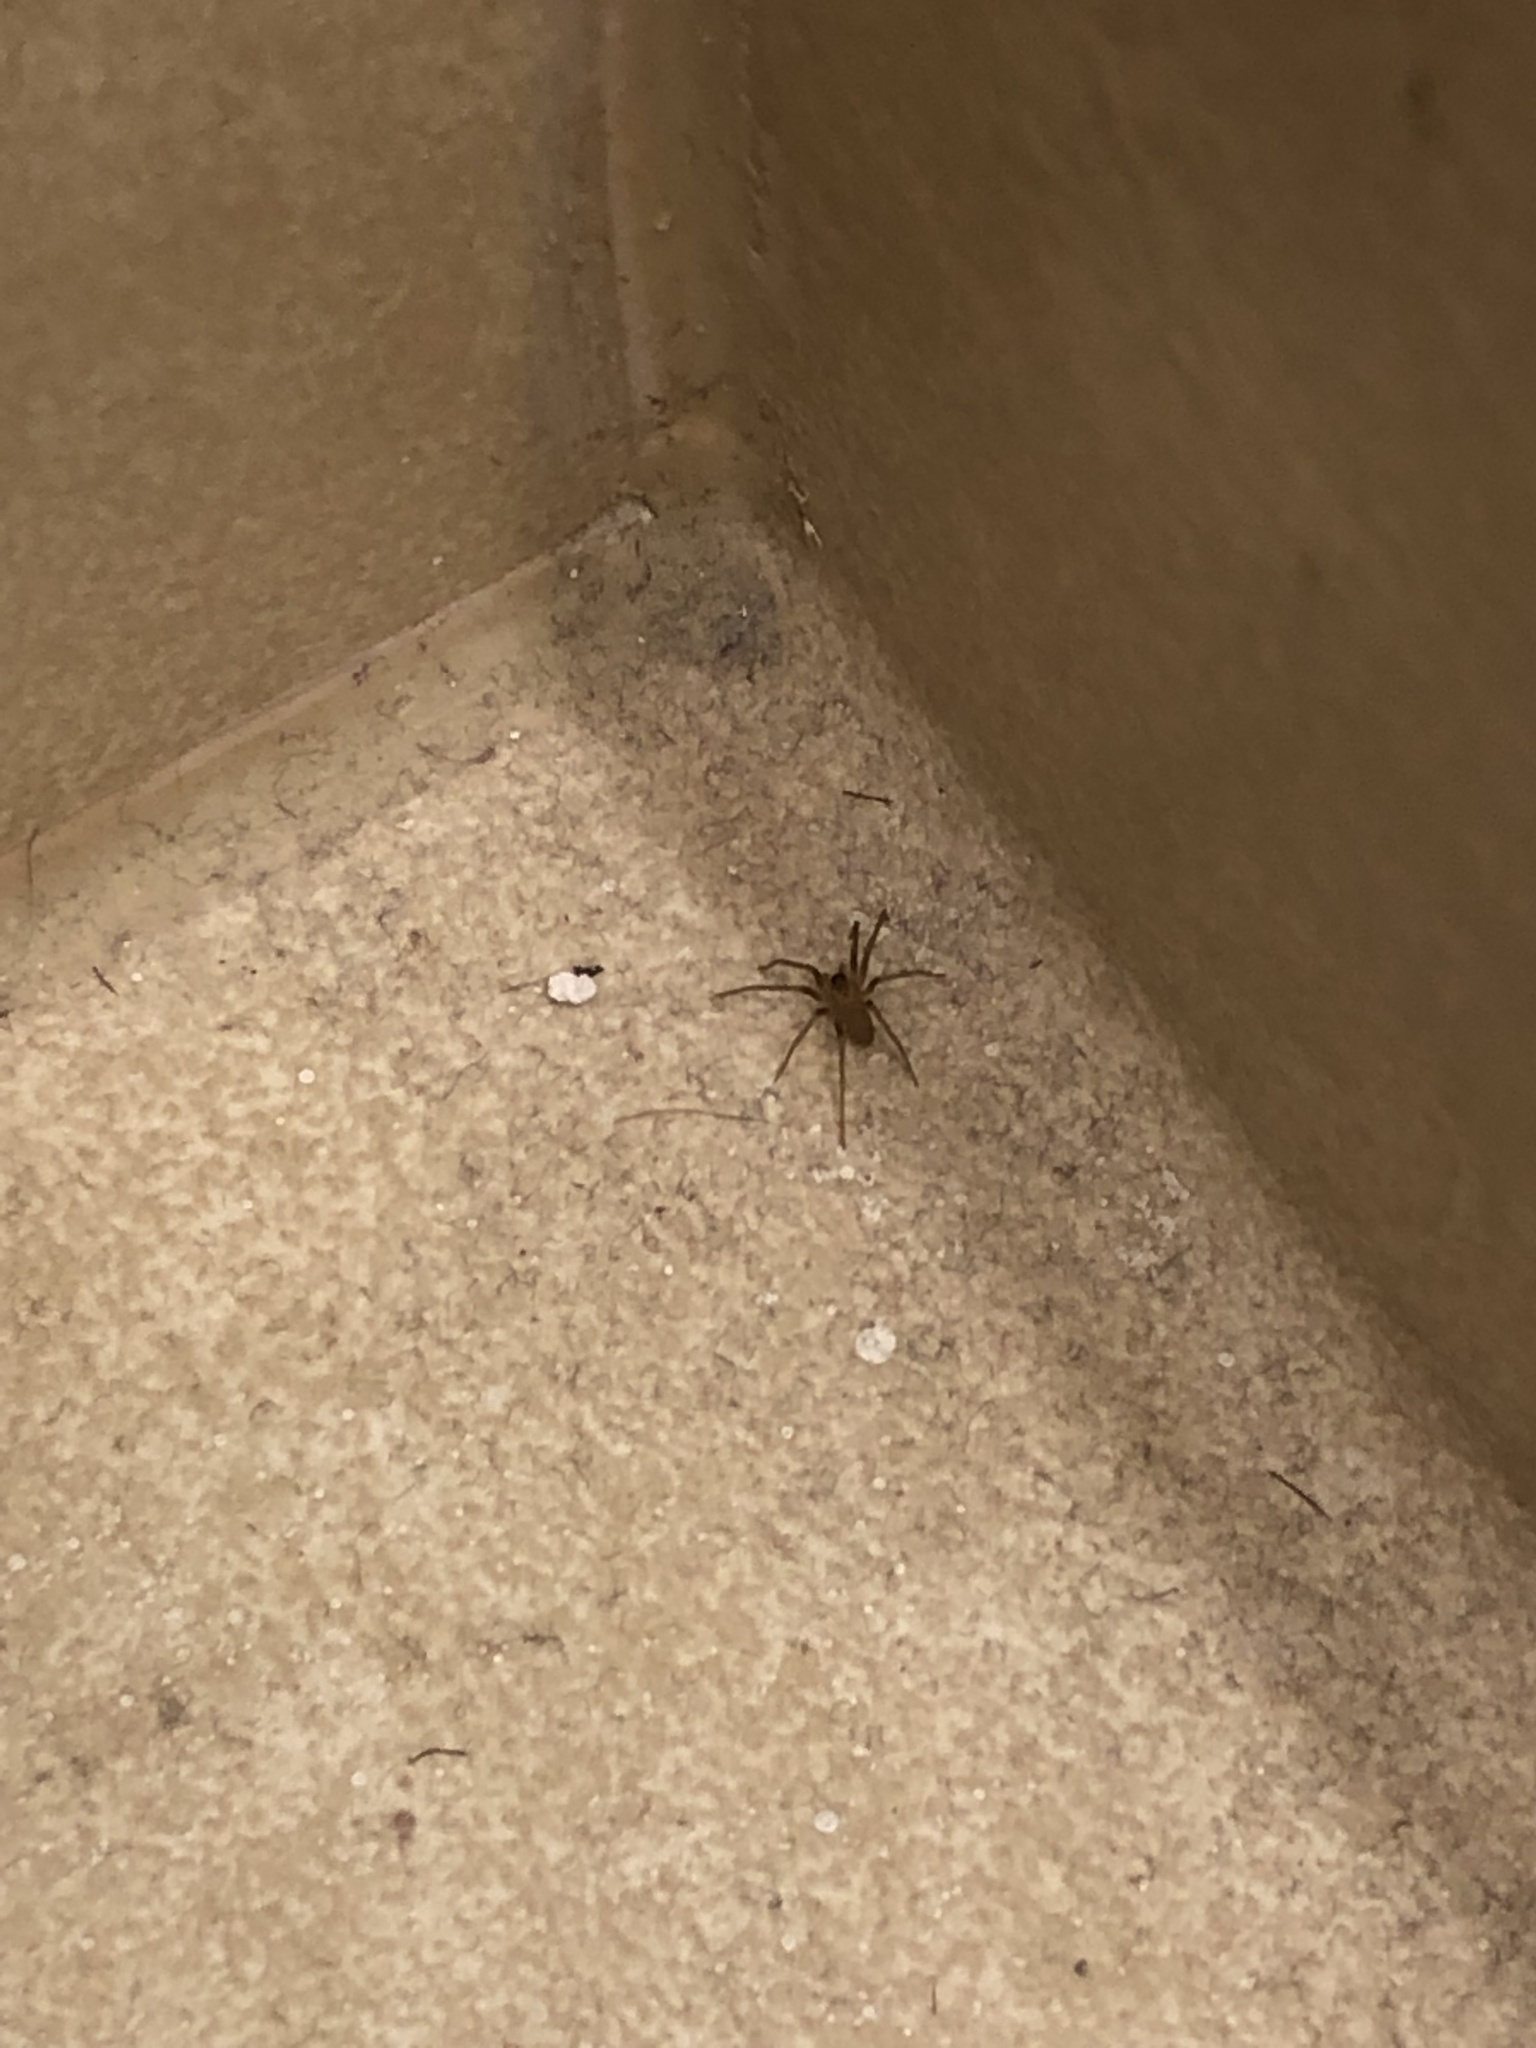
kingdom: Animalia
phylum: Arthropoda
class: Arachnida
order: Araneae
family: Sicariidae
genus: Loxosceles
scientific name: Loxosceles reclusa
